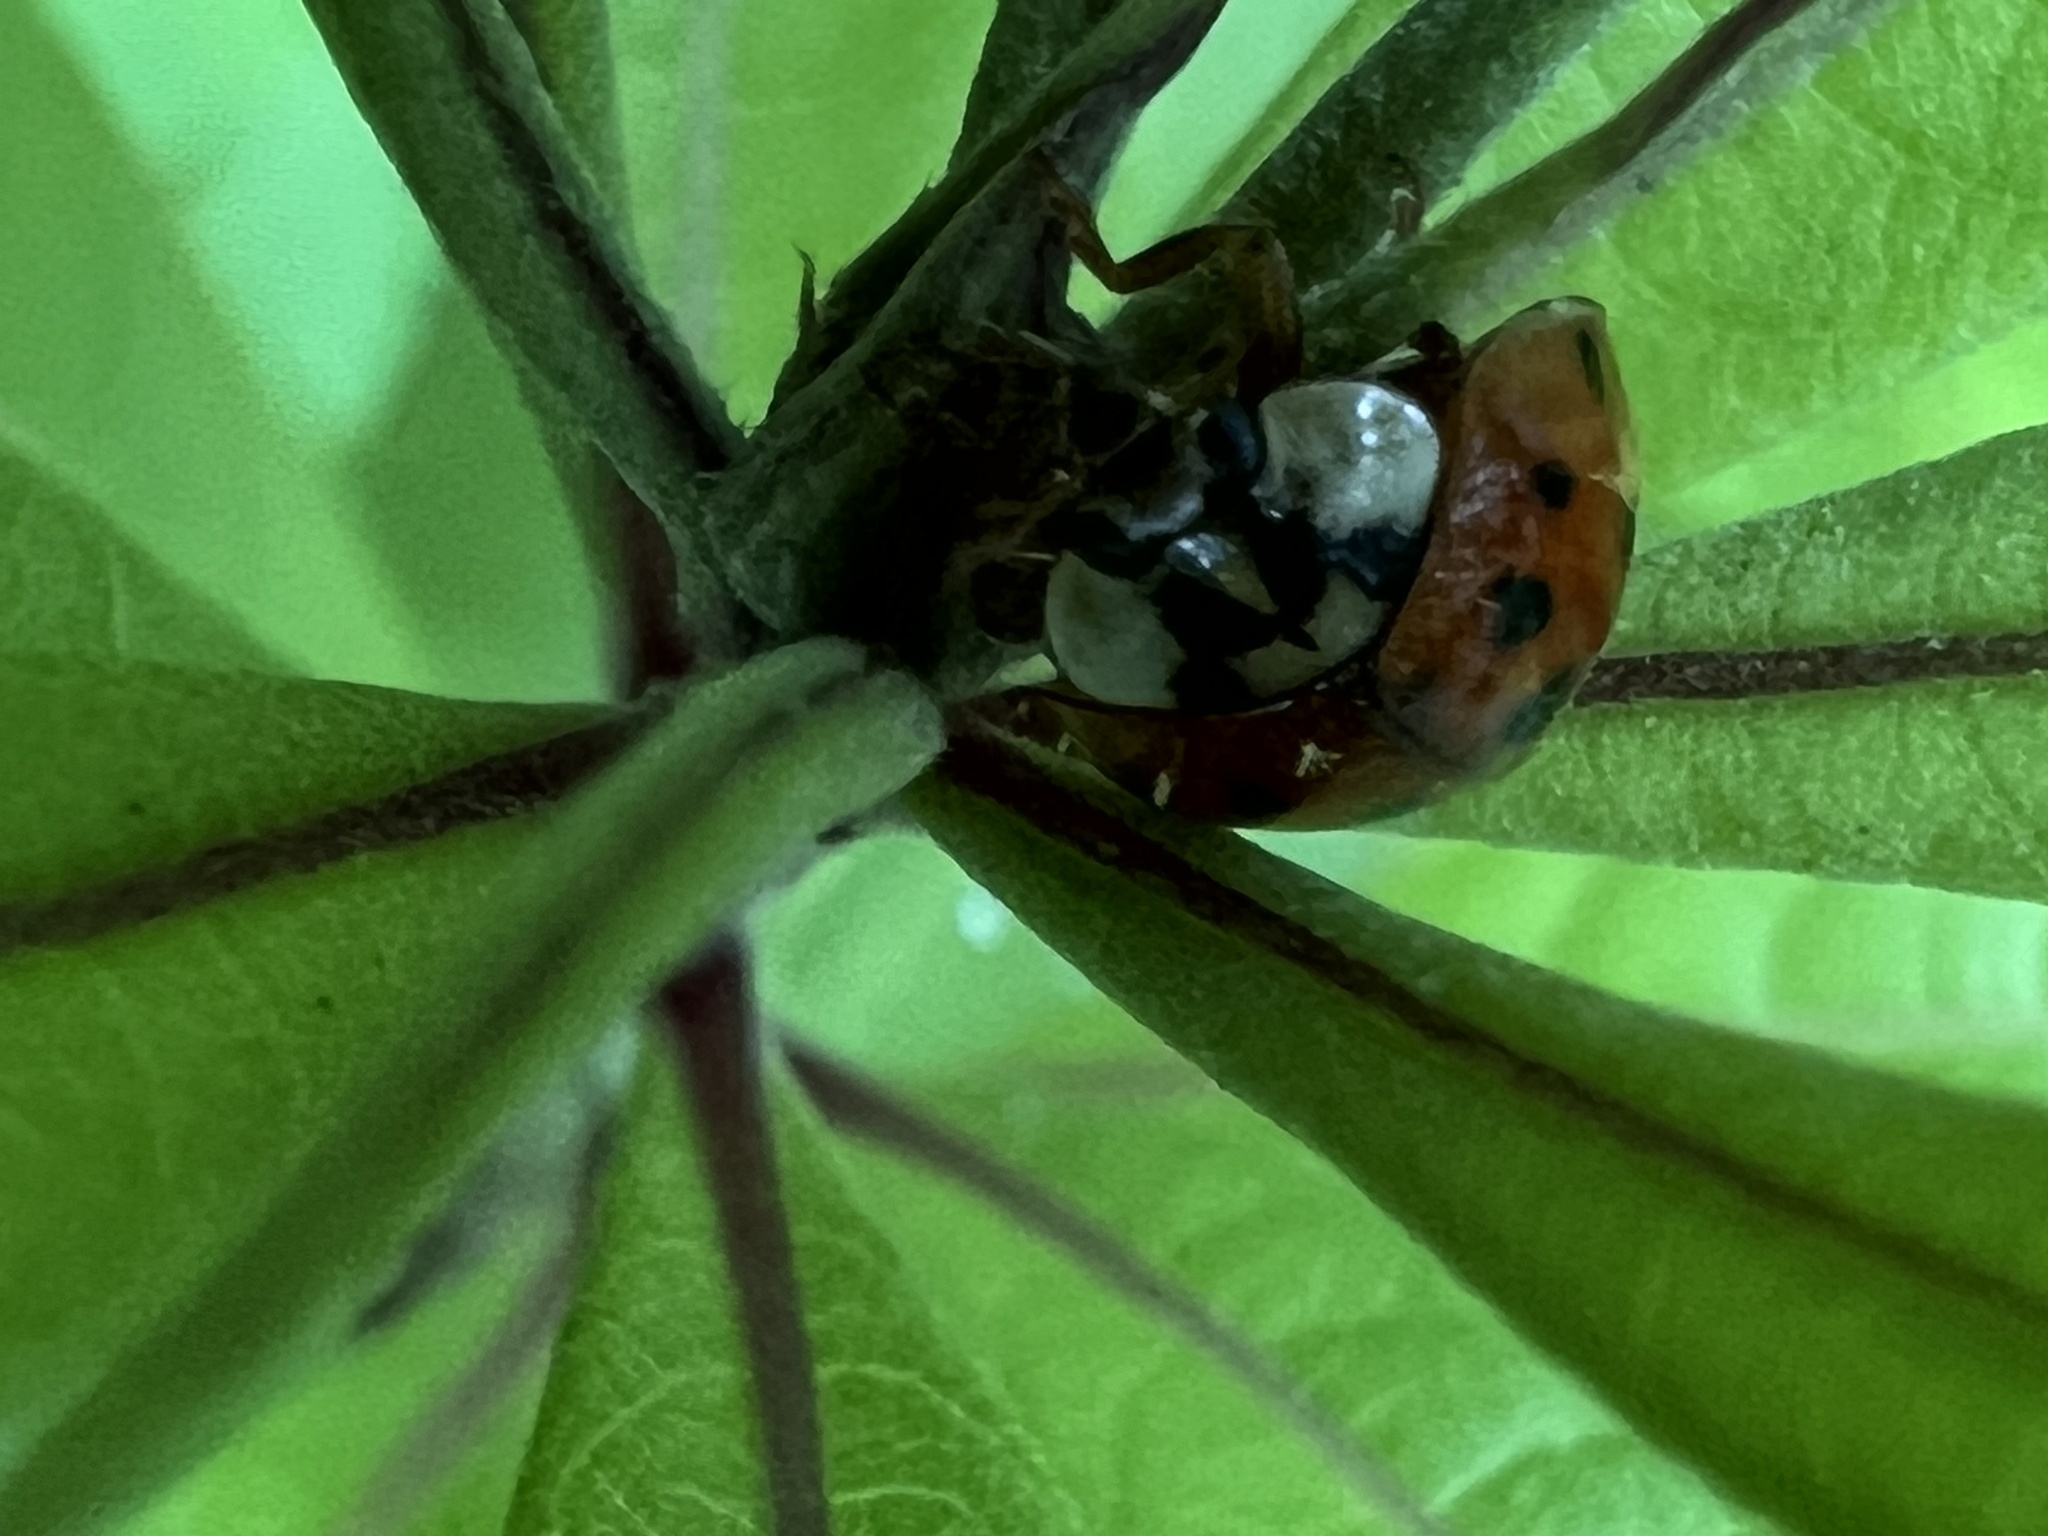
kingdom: Animalia
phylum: Arthropoda
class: Insecta
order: Coleoptera
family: Coccinellidae
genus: Harmonia
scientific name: Harmonia axyridis
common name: Harlequin ladybird
